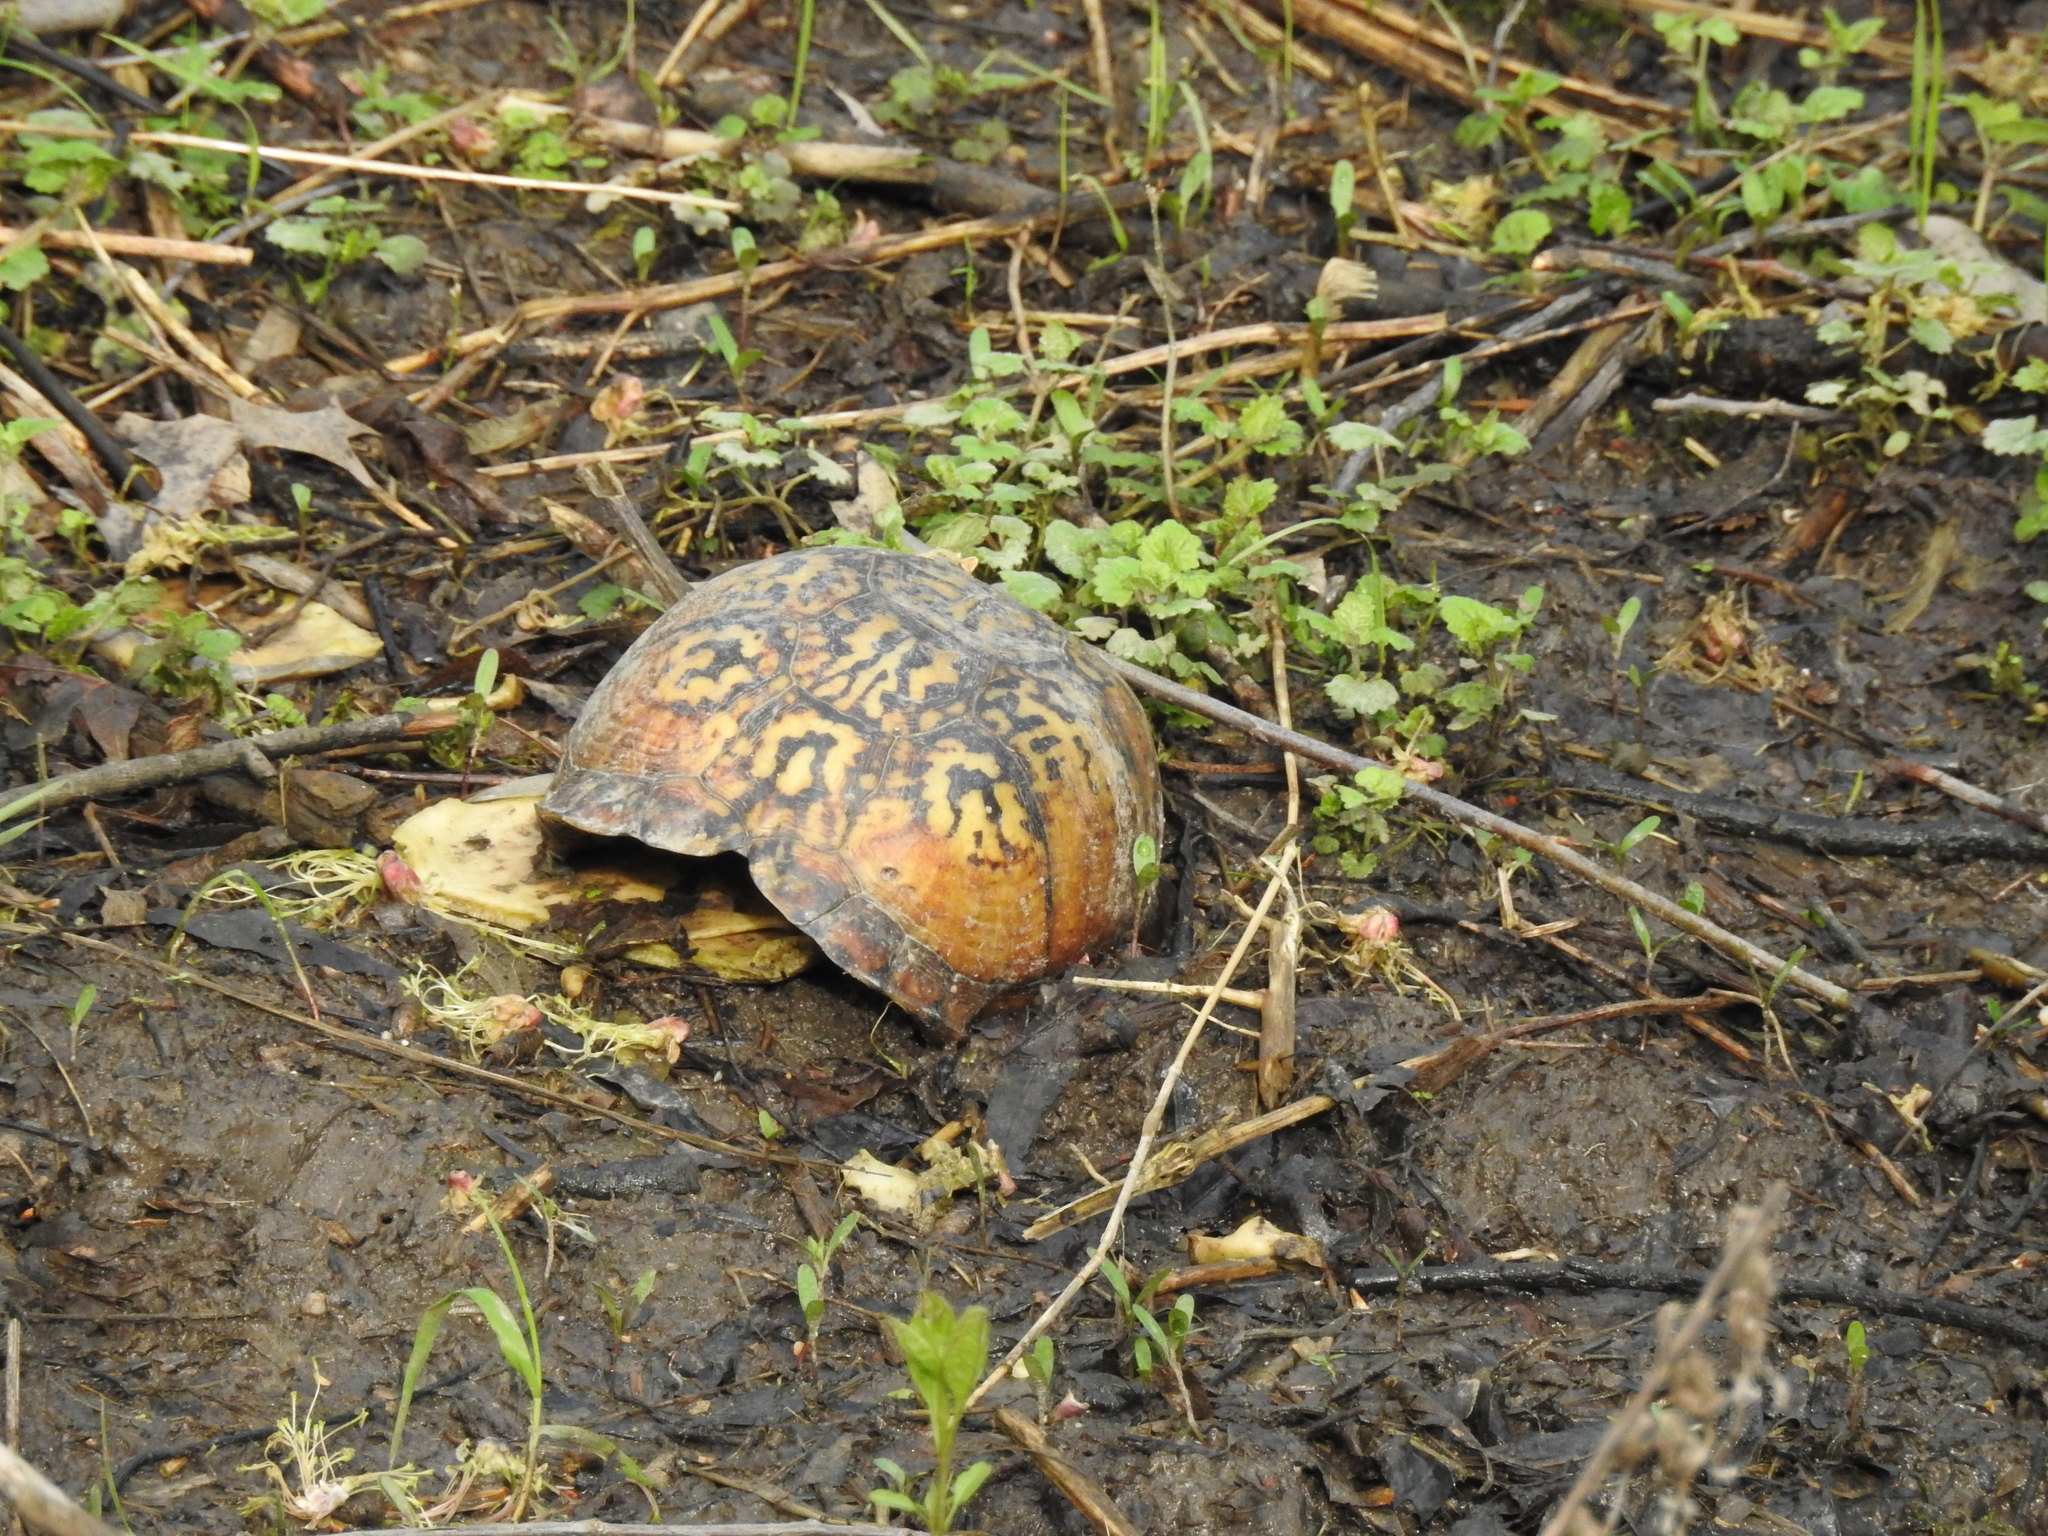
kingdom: Animalia
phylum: Chordata
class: Testudines
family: Emydidae
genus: Terrapene
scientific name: Terrapene carolina
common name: Common box turtle
